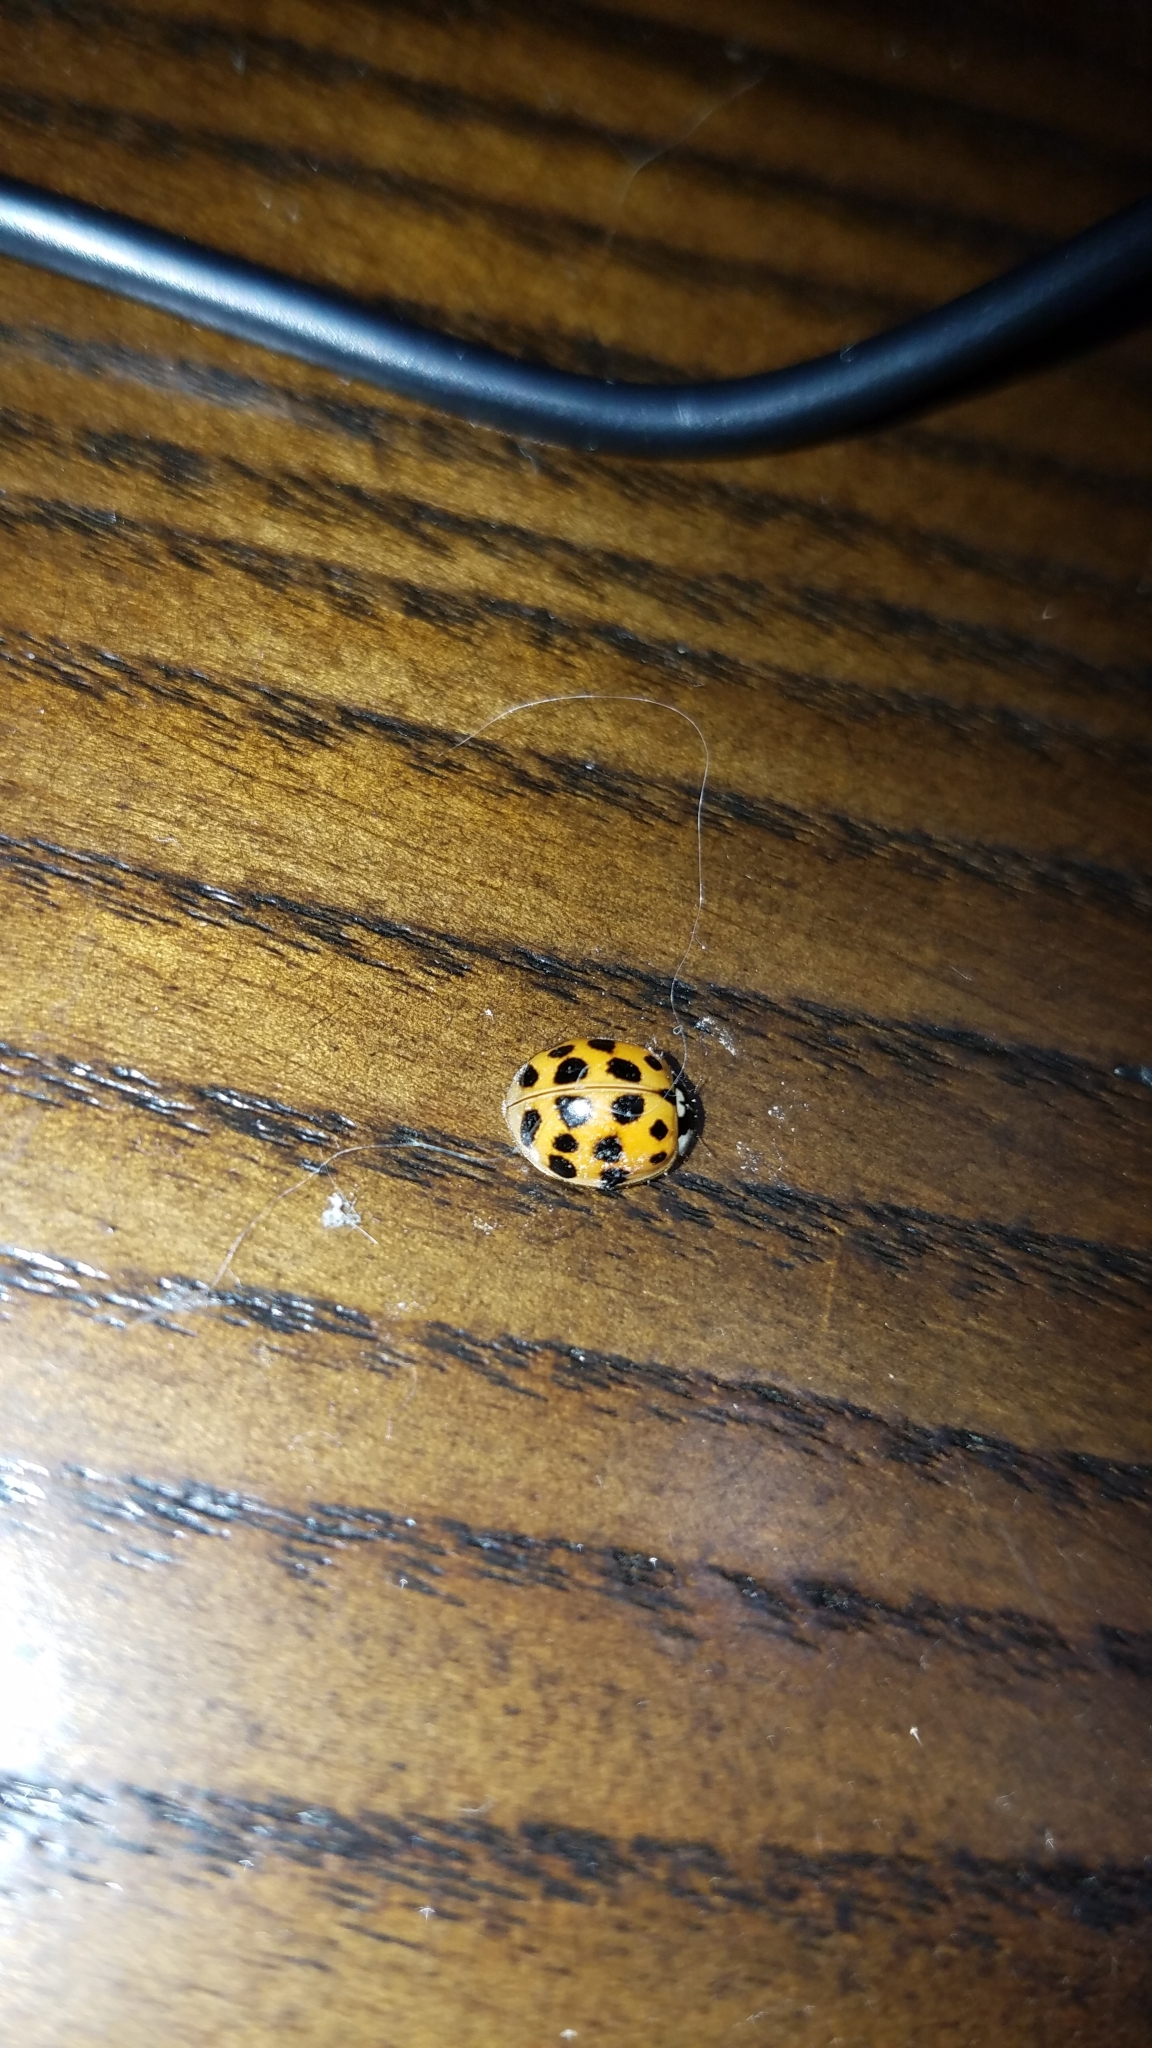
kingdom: Animalia
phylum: Arthropoda
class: Insecta
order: Coleoptera
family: Coccinellidae
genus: Harmonia
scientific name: Harmonia axyridis
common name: Harlequin ladybird
